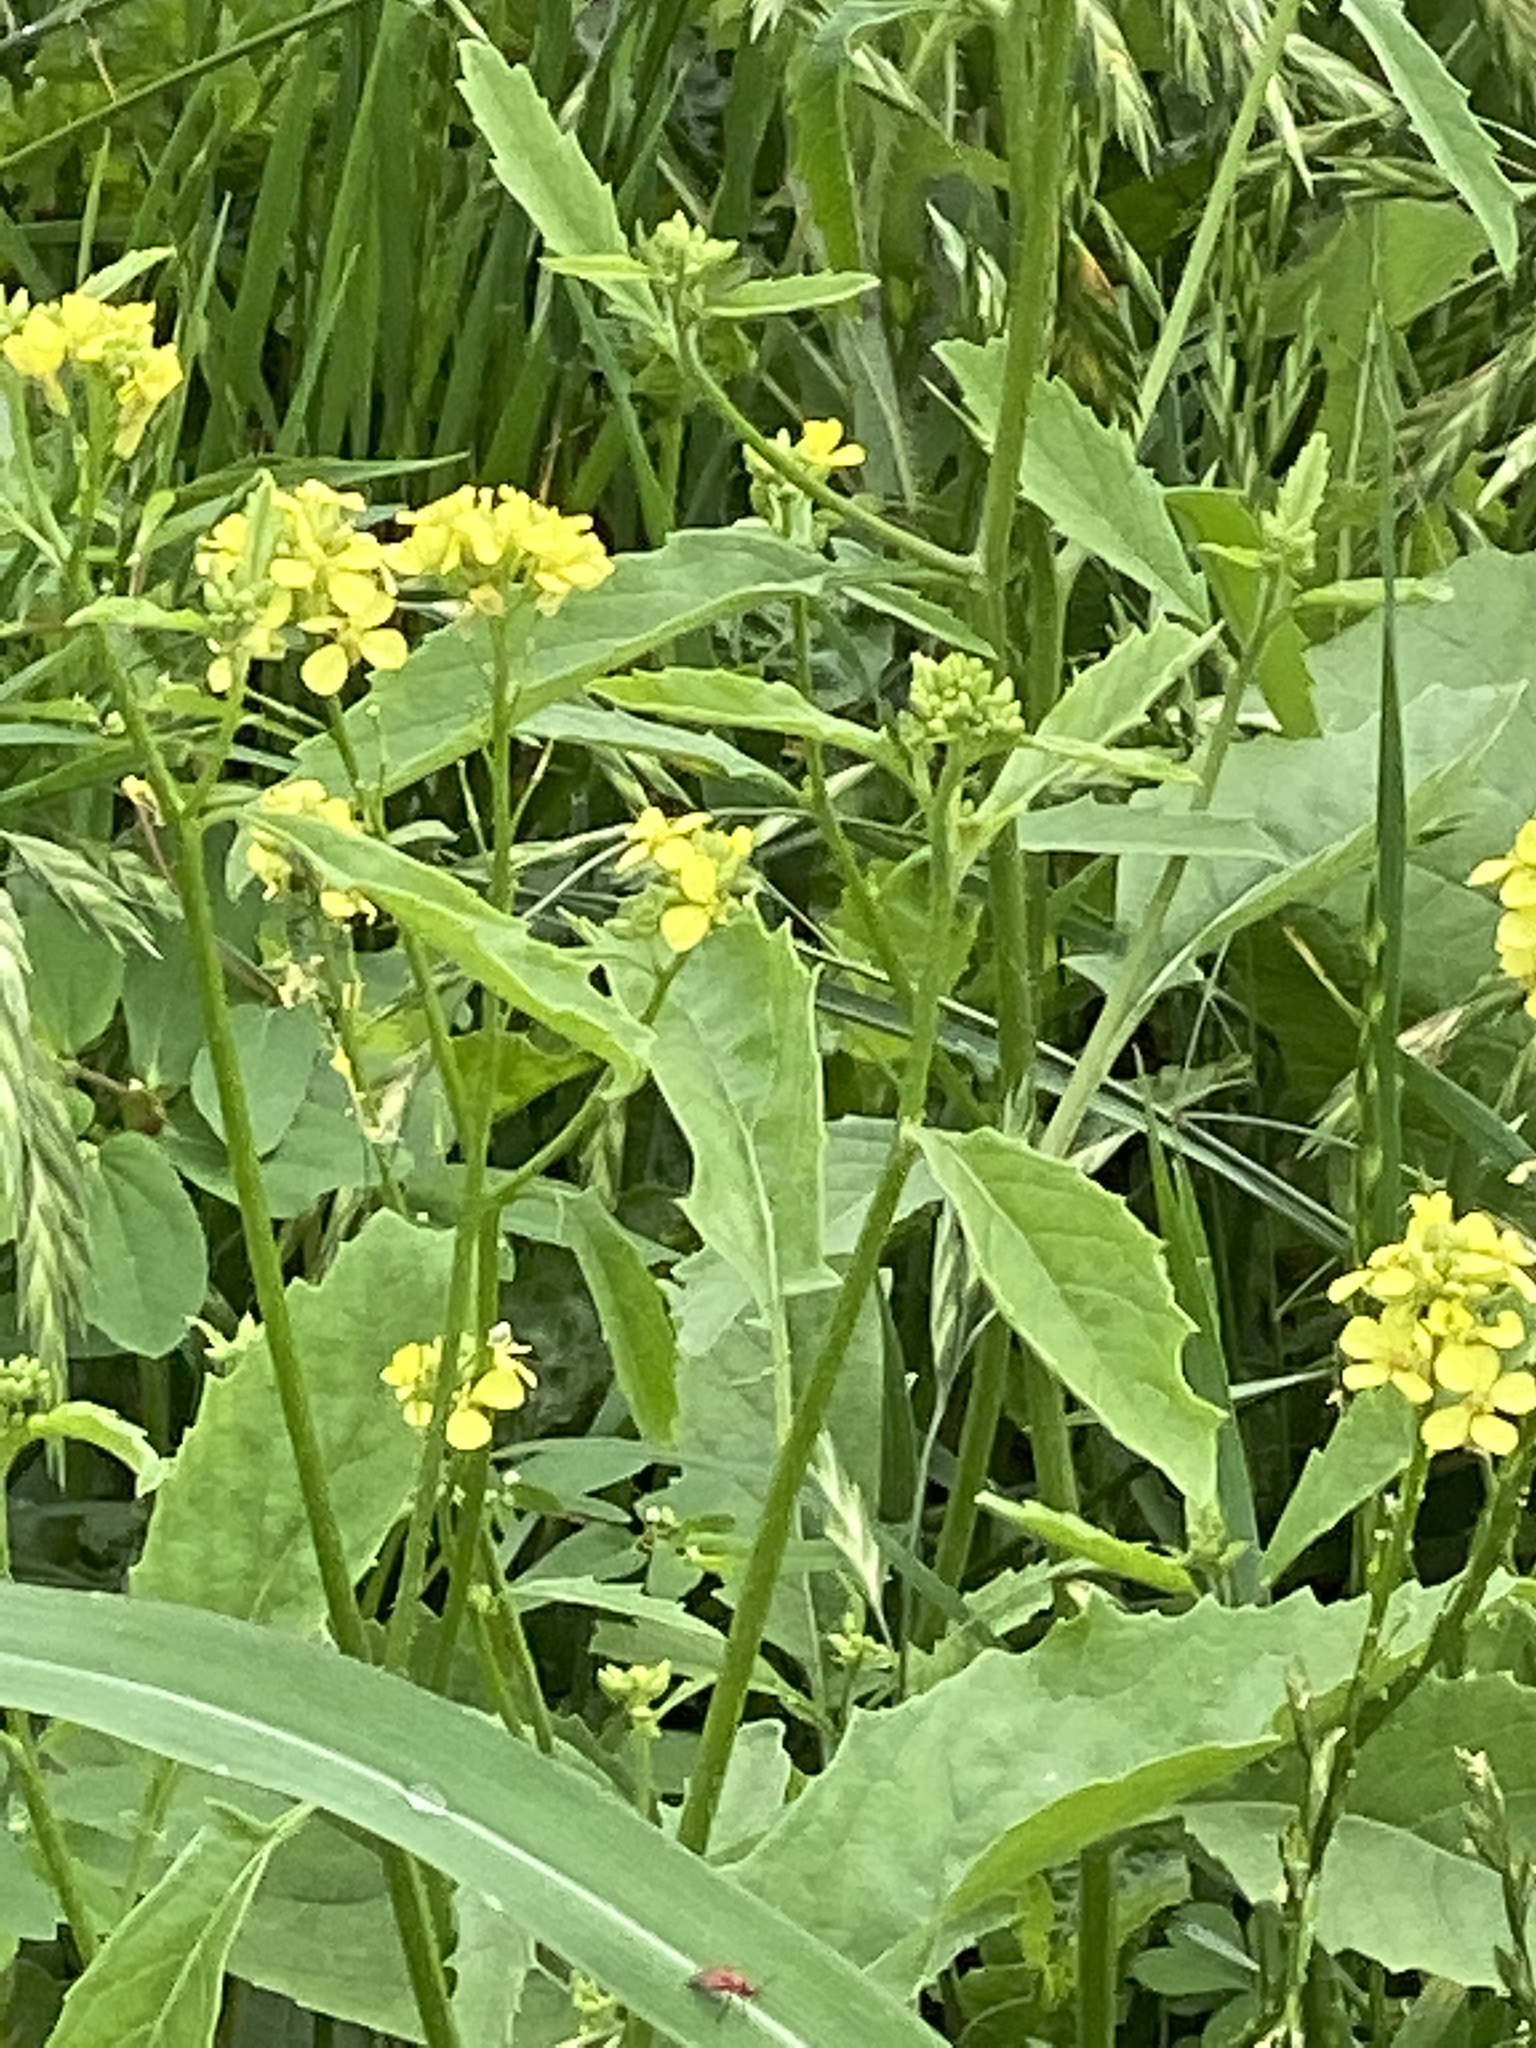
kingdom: Plantae
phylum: Tracheophyta
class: Magnoliopsida
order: Brassicales
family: Brassicaceae
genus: Rapistrum
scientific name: Rapistrum rugosum
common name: Annual bastardcabbage
